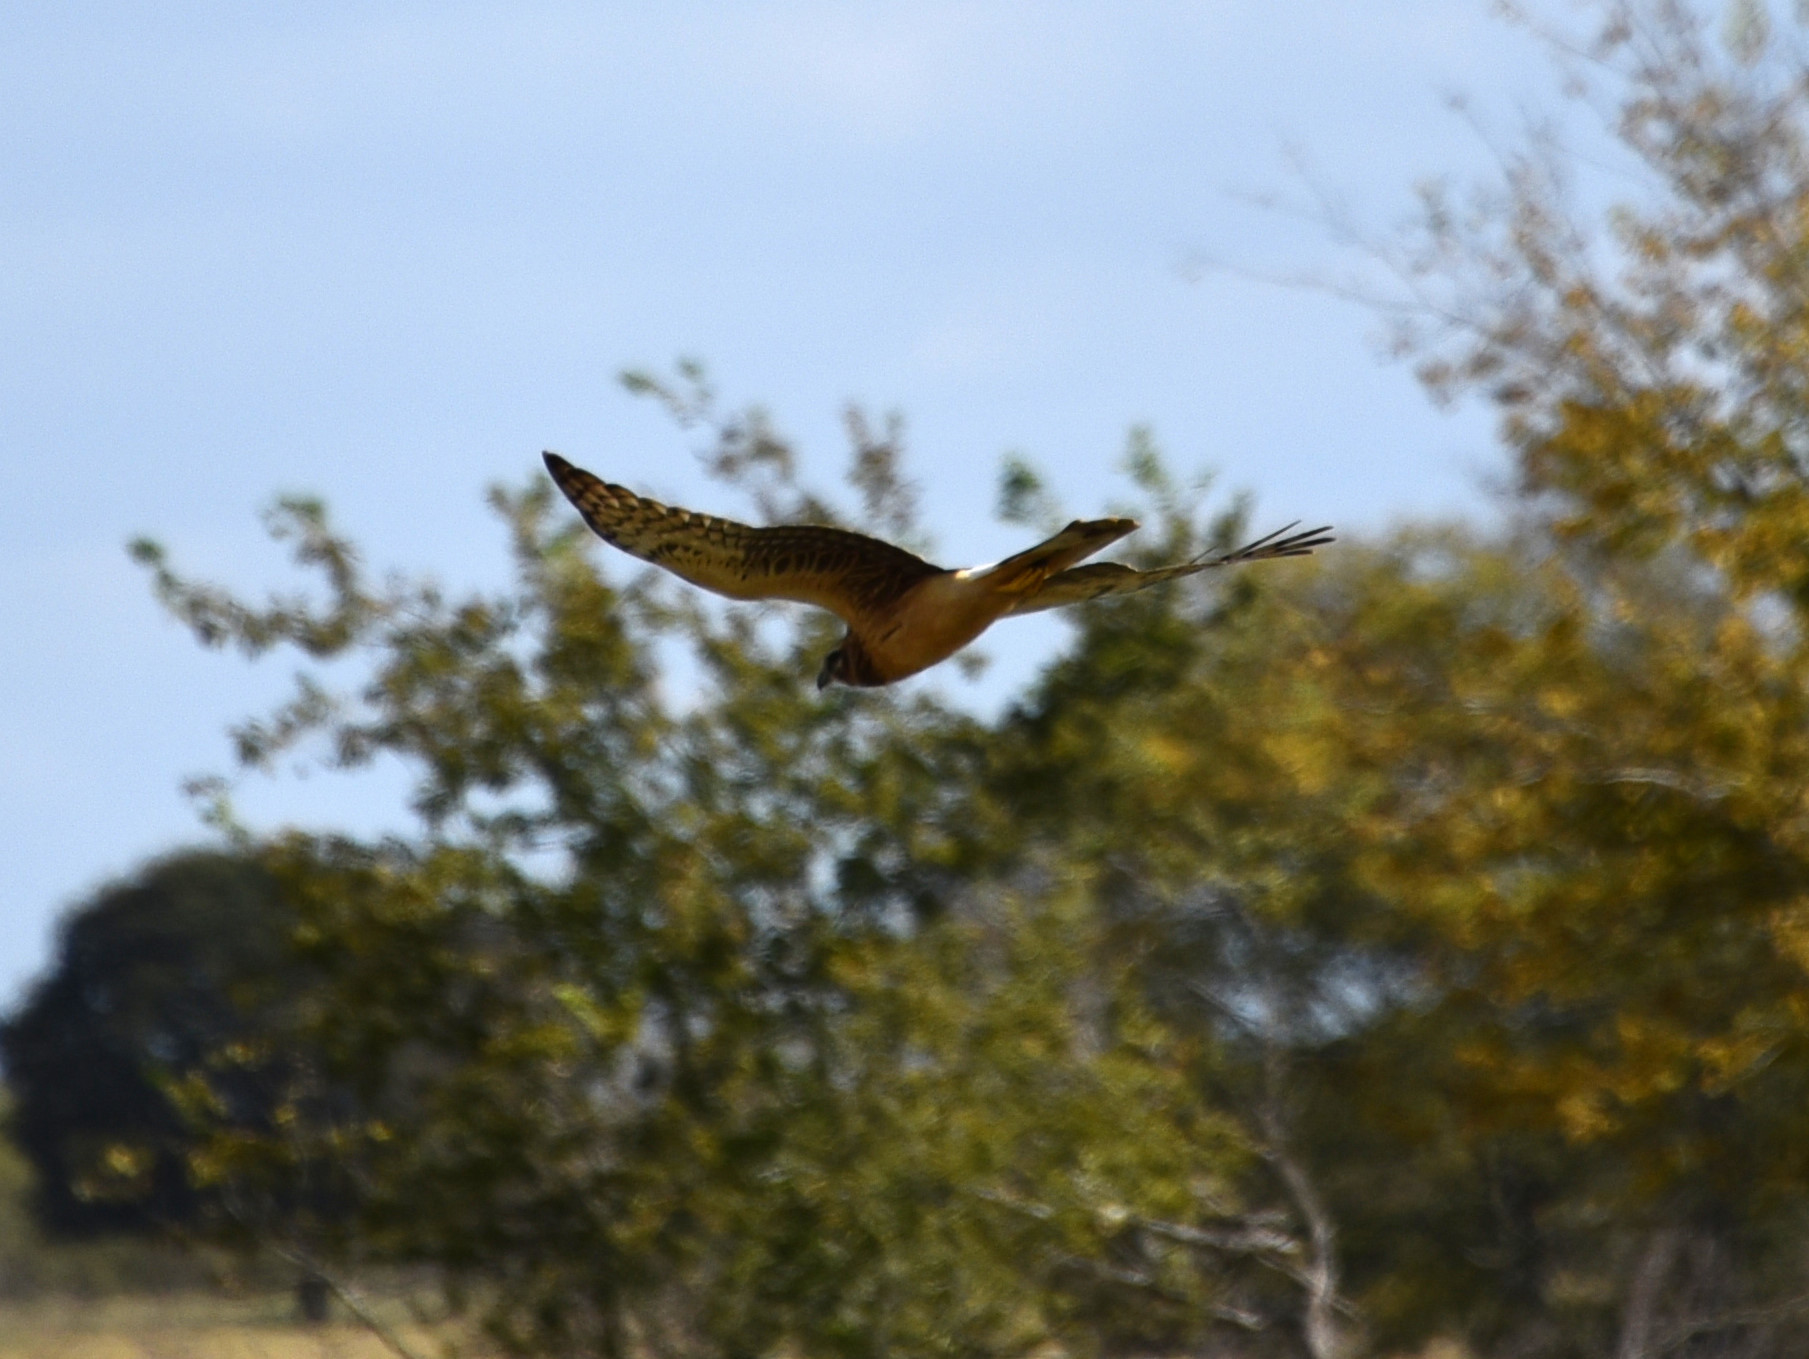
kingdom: Animalia
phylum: Chordata
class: Aves
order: Accipitriformes
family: Accipitridae
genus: Circus
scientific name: Circus cyaneus
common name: Hen harrier
